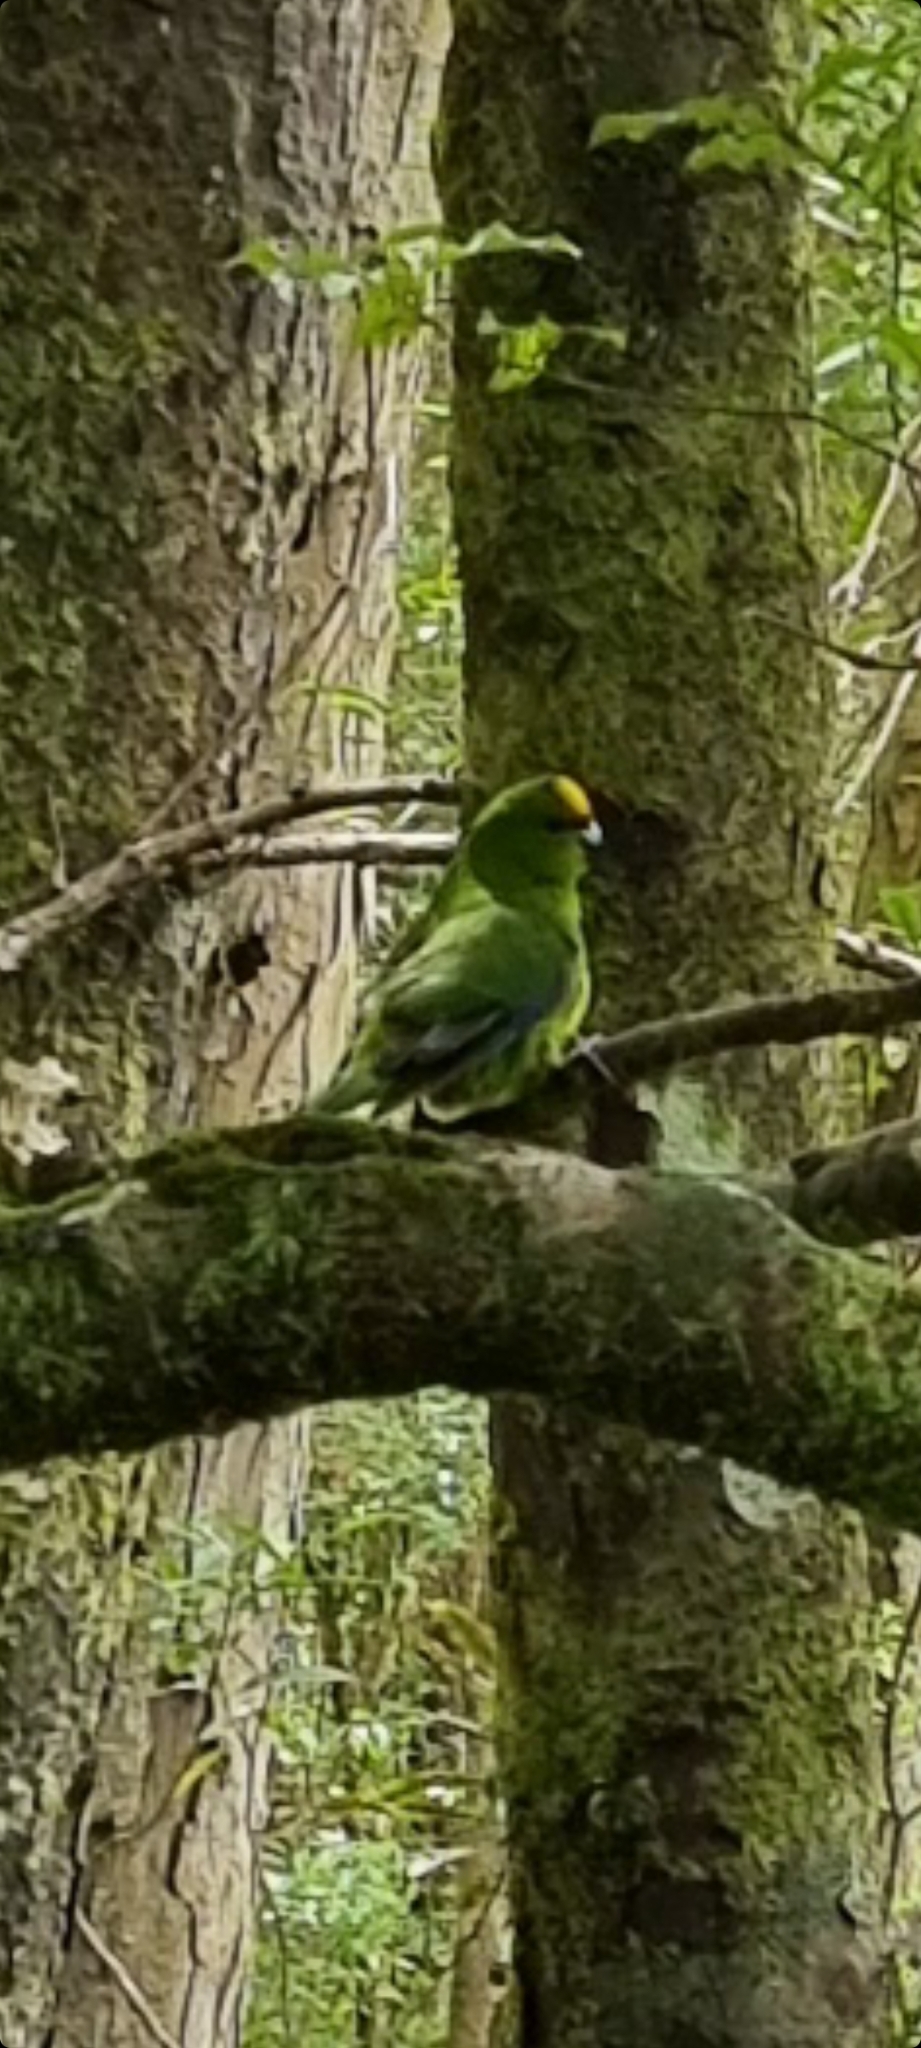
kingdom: Animalia
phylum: Chordata
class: Aves
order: Psittaciformes
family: Psittacidae
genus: Cyanoramphus
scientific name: Cyanoramphus auriceps
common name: Yellow-crowned parakeet
